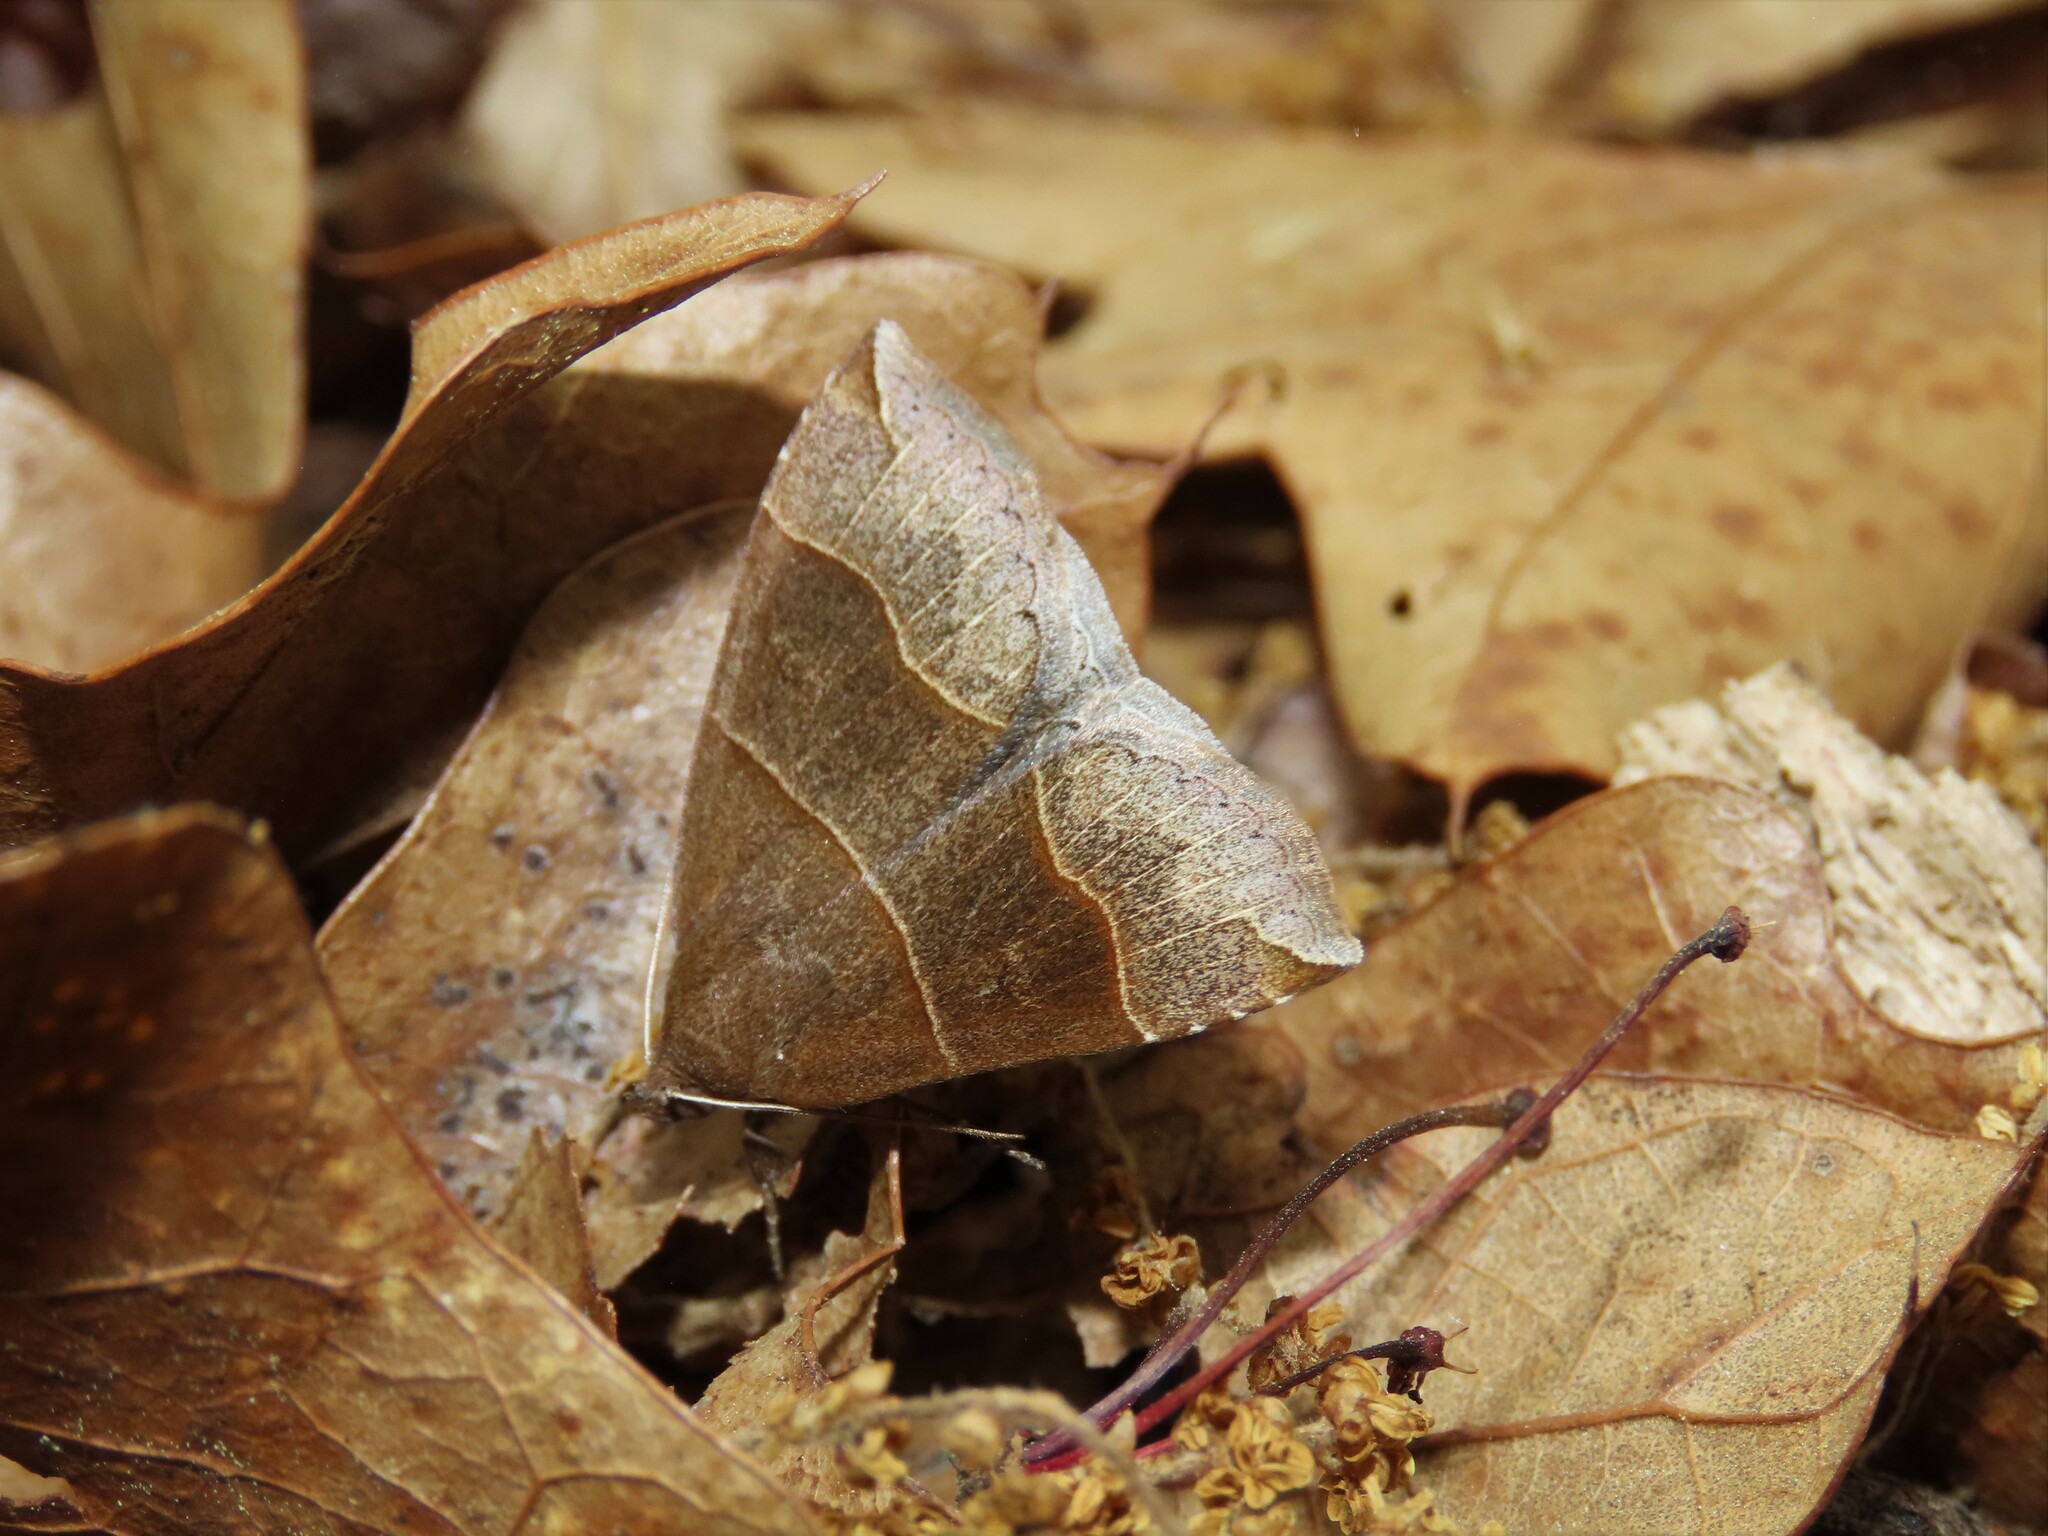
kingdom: Animalia
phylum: Arthropoda
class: Insecta
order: Lepidoptera
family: Erebidae
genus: Parallelia
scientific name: Parallelia bistriaris
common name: Maple looper moth
